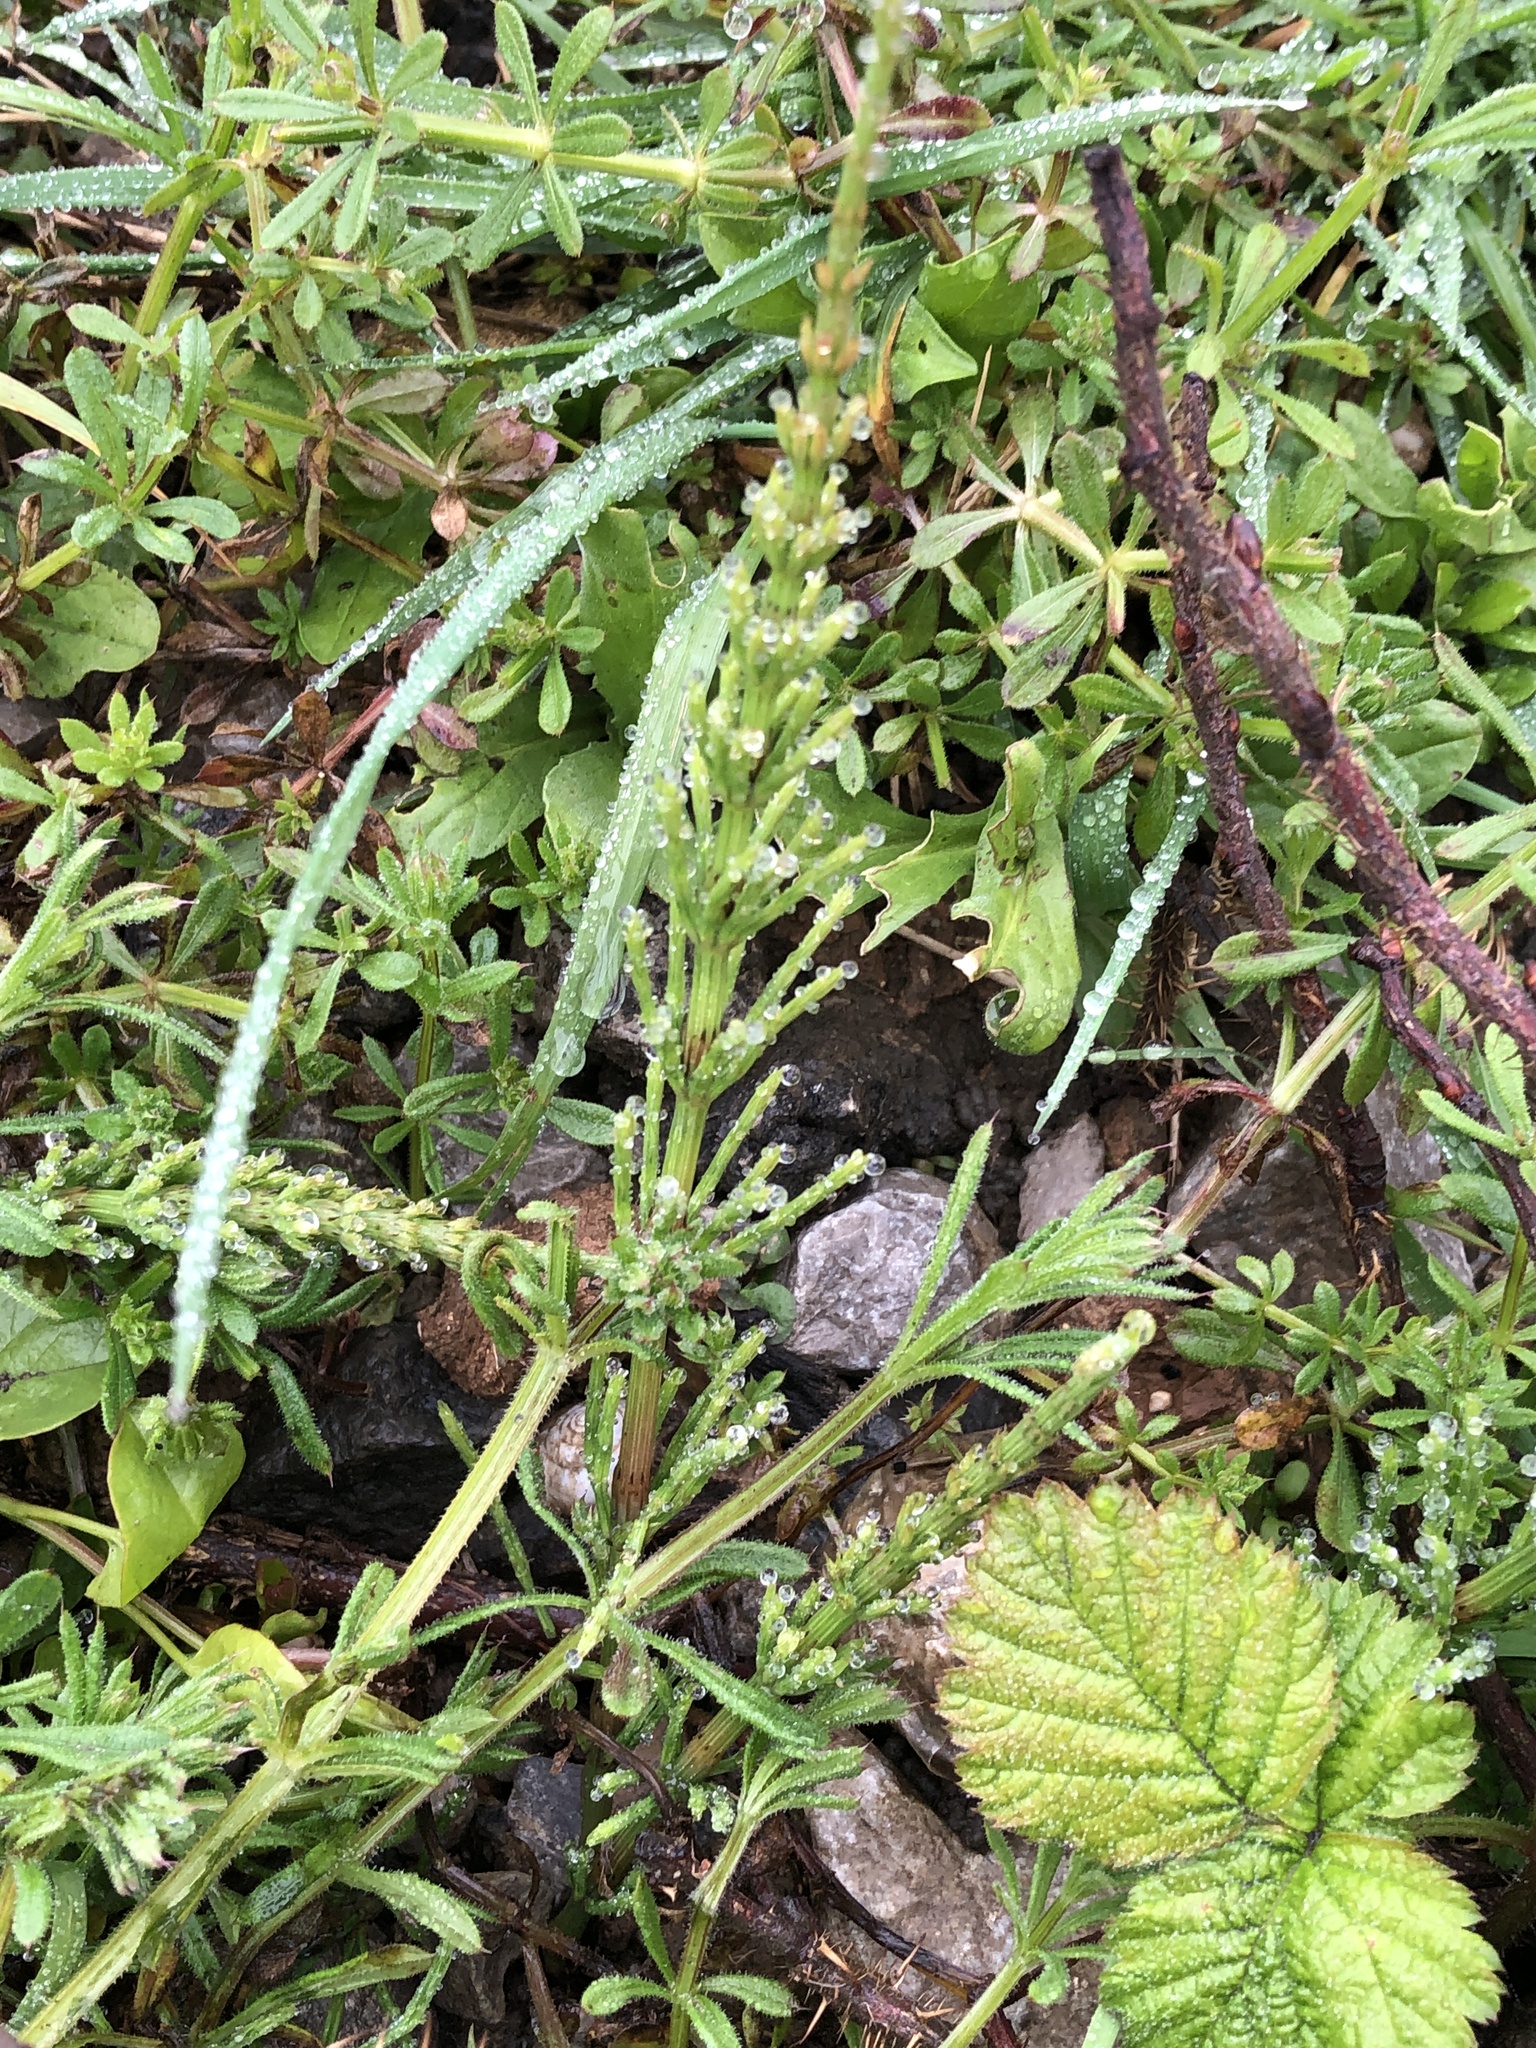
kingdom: Plantae
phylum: Tracheophyta
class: Polypodiopsida
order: Equisetales
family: Equisetaceae
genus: Equisetum
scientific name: Equisetum arvense
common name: Field horsetail
